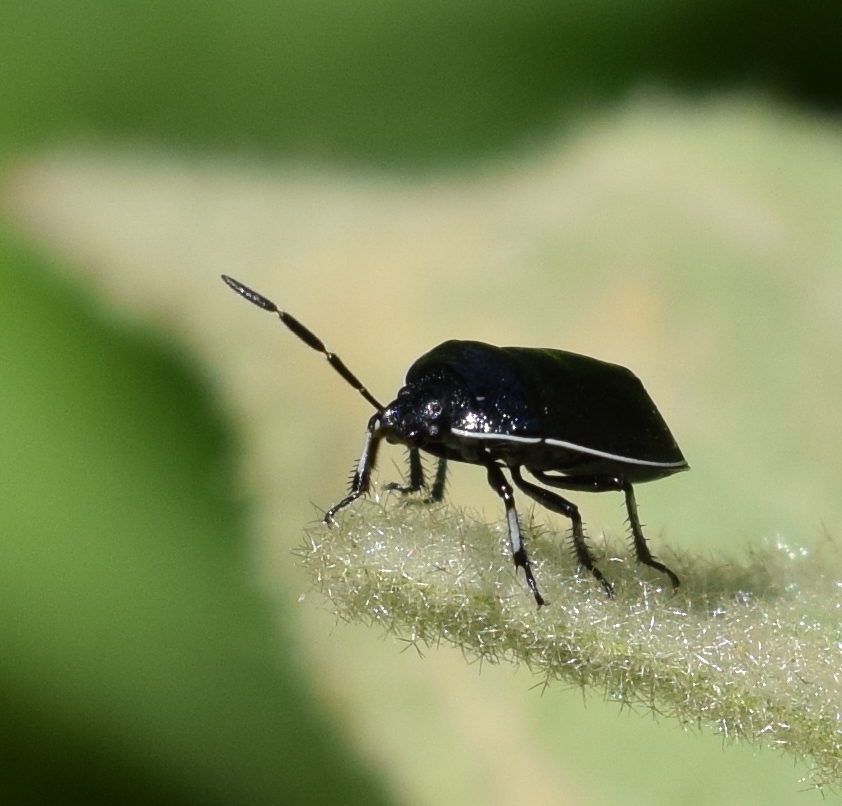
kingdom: Animalia
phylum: Arthropoda
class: Insecta
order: Hemiptera
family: Cydnidae
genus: Sehirus
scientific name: Sehirus cinctus
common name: White-margined burrower bug
